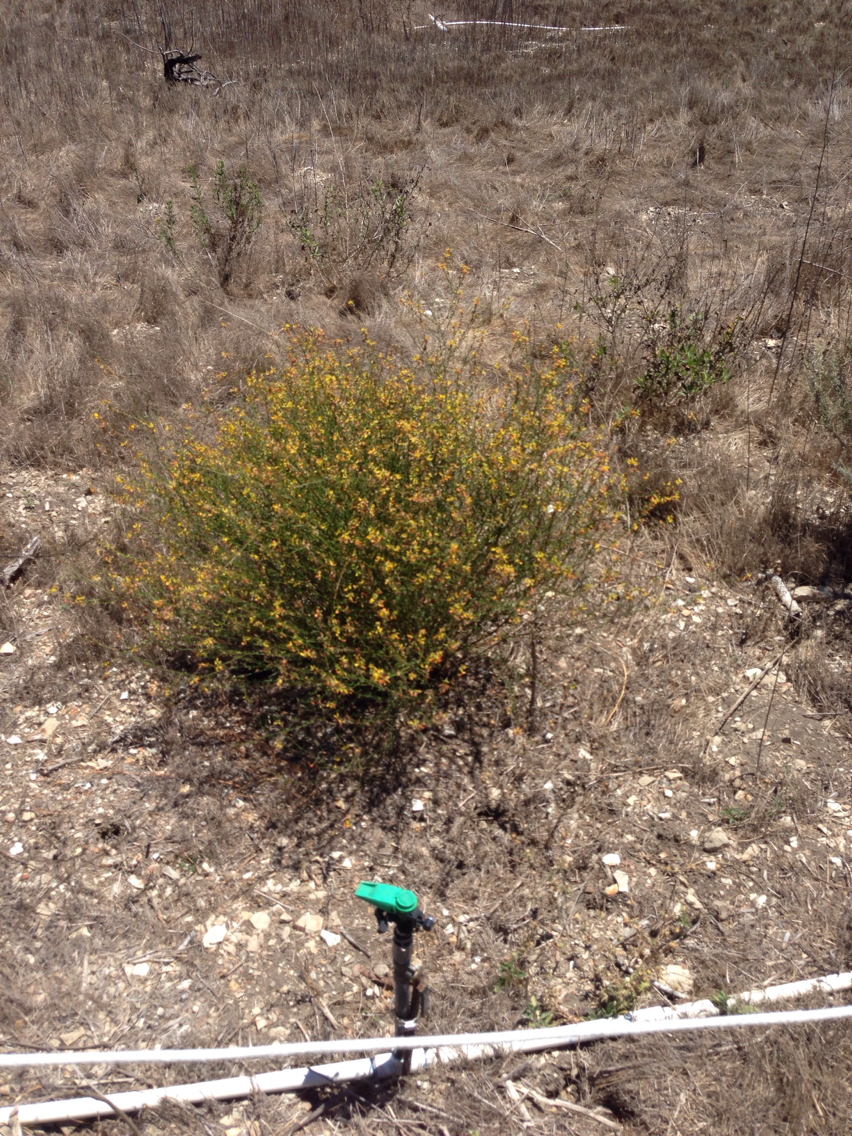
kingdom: Plantae
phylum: Tracheophyta
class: Magnoliopsida
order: Fabales
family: Fabaceae
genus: Acmispon
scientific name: Acmispon glaber
